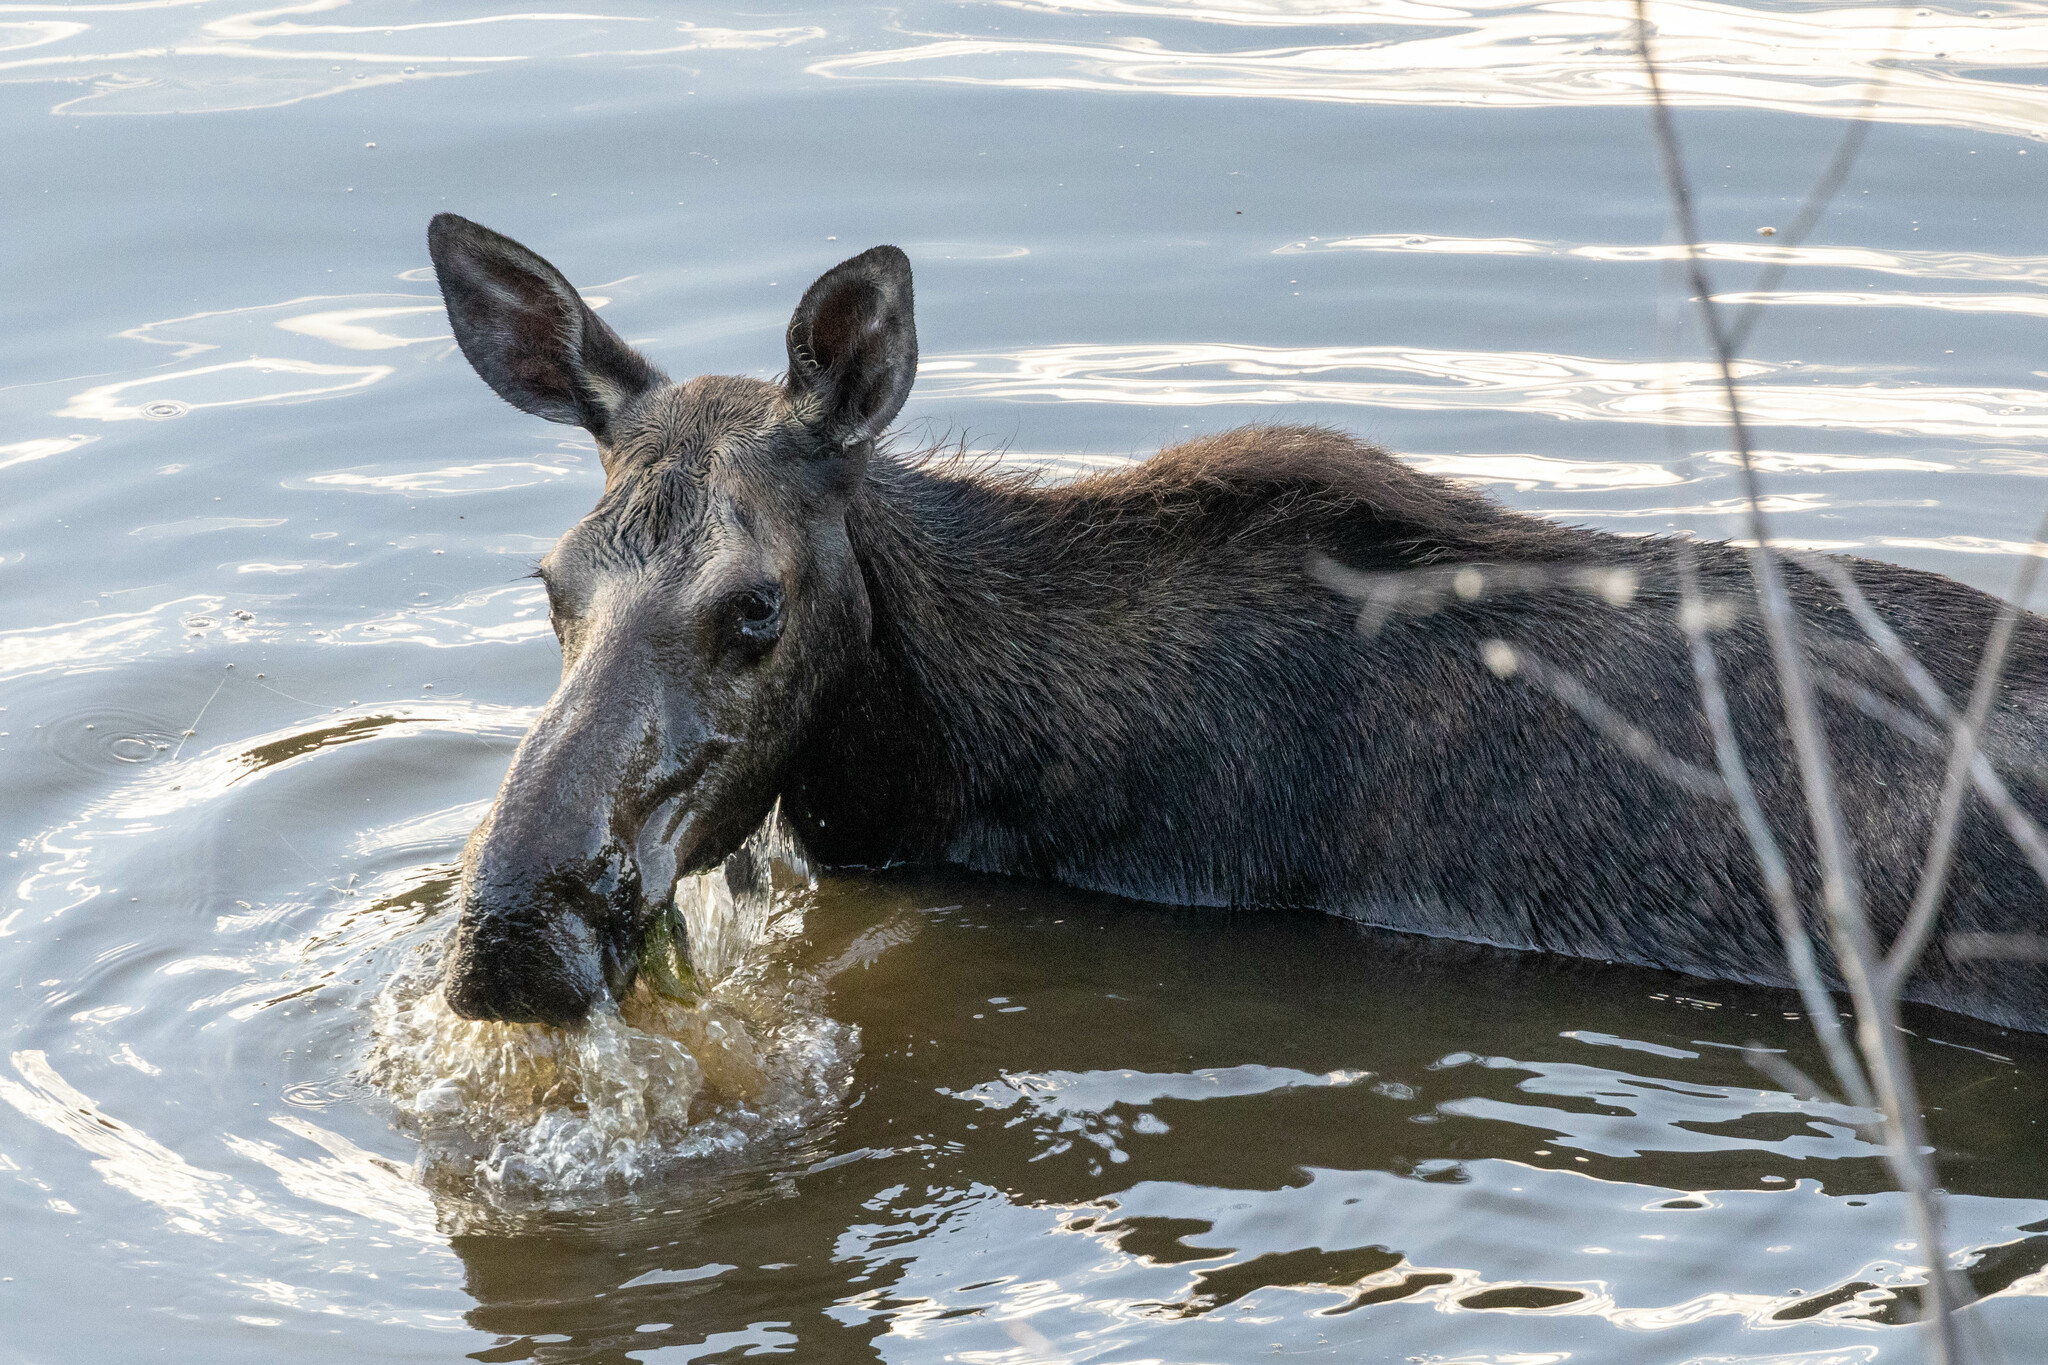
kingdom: Animalia
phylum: Chordata
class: Mammalia
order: Artiodactyla
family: Cervidae
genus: Alces
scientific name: Alces alces
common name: Moose
